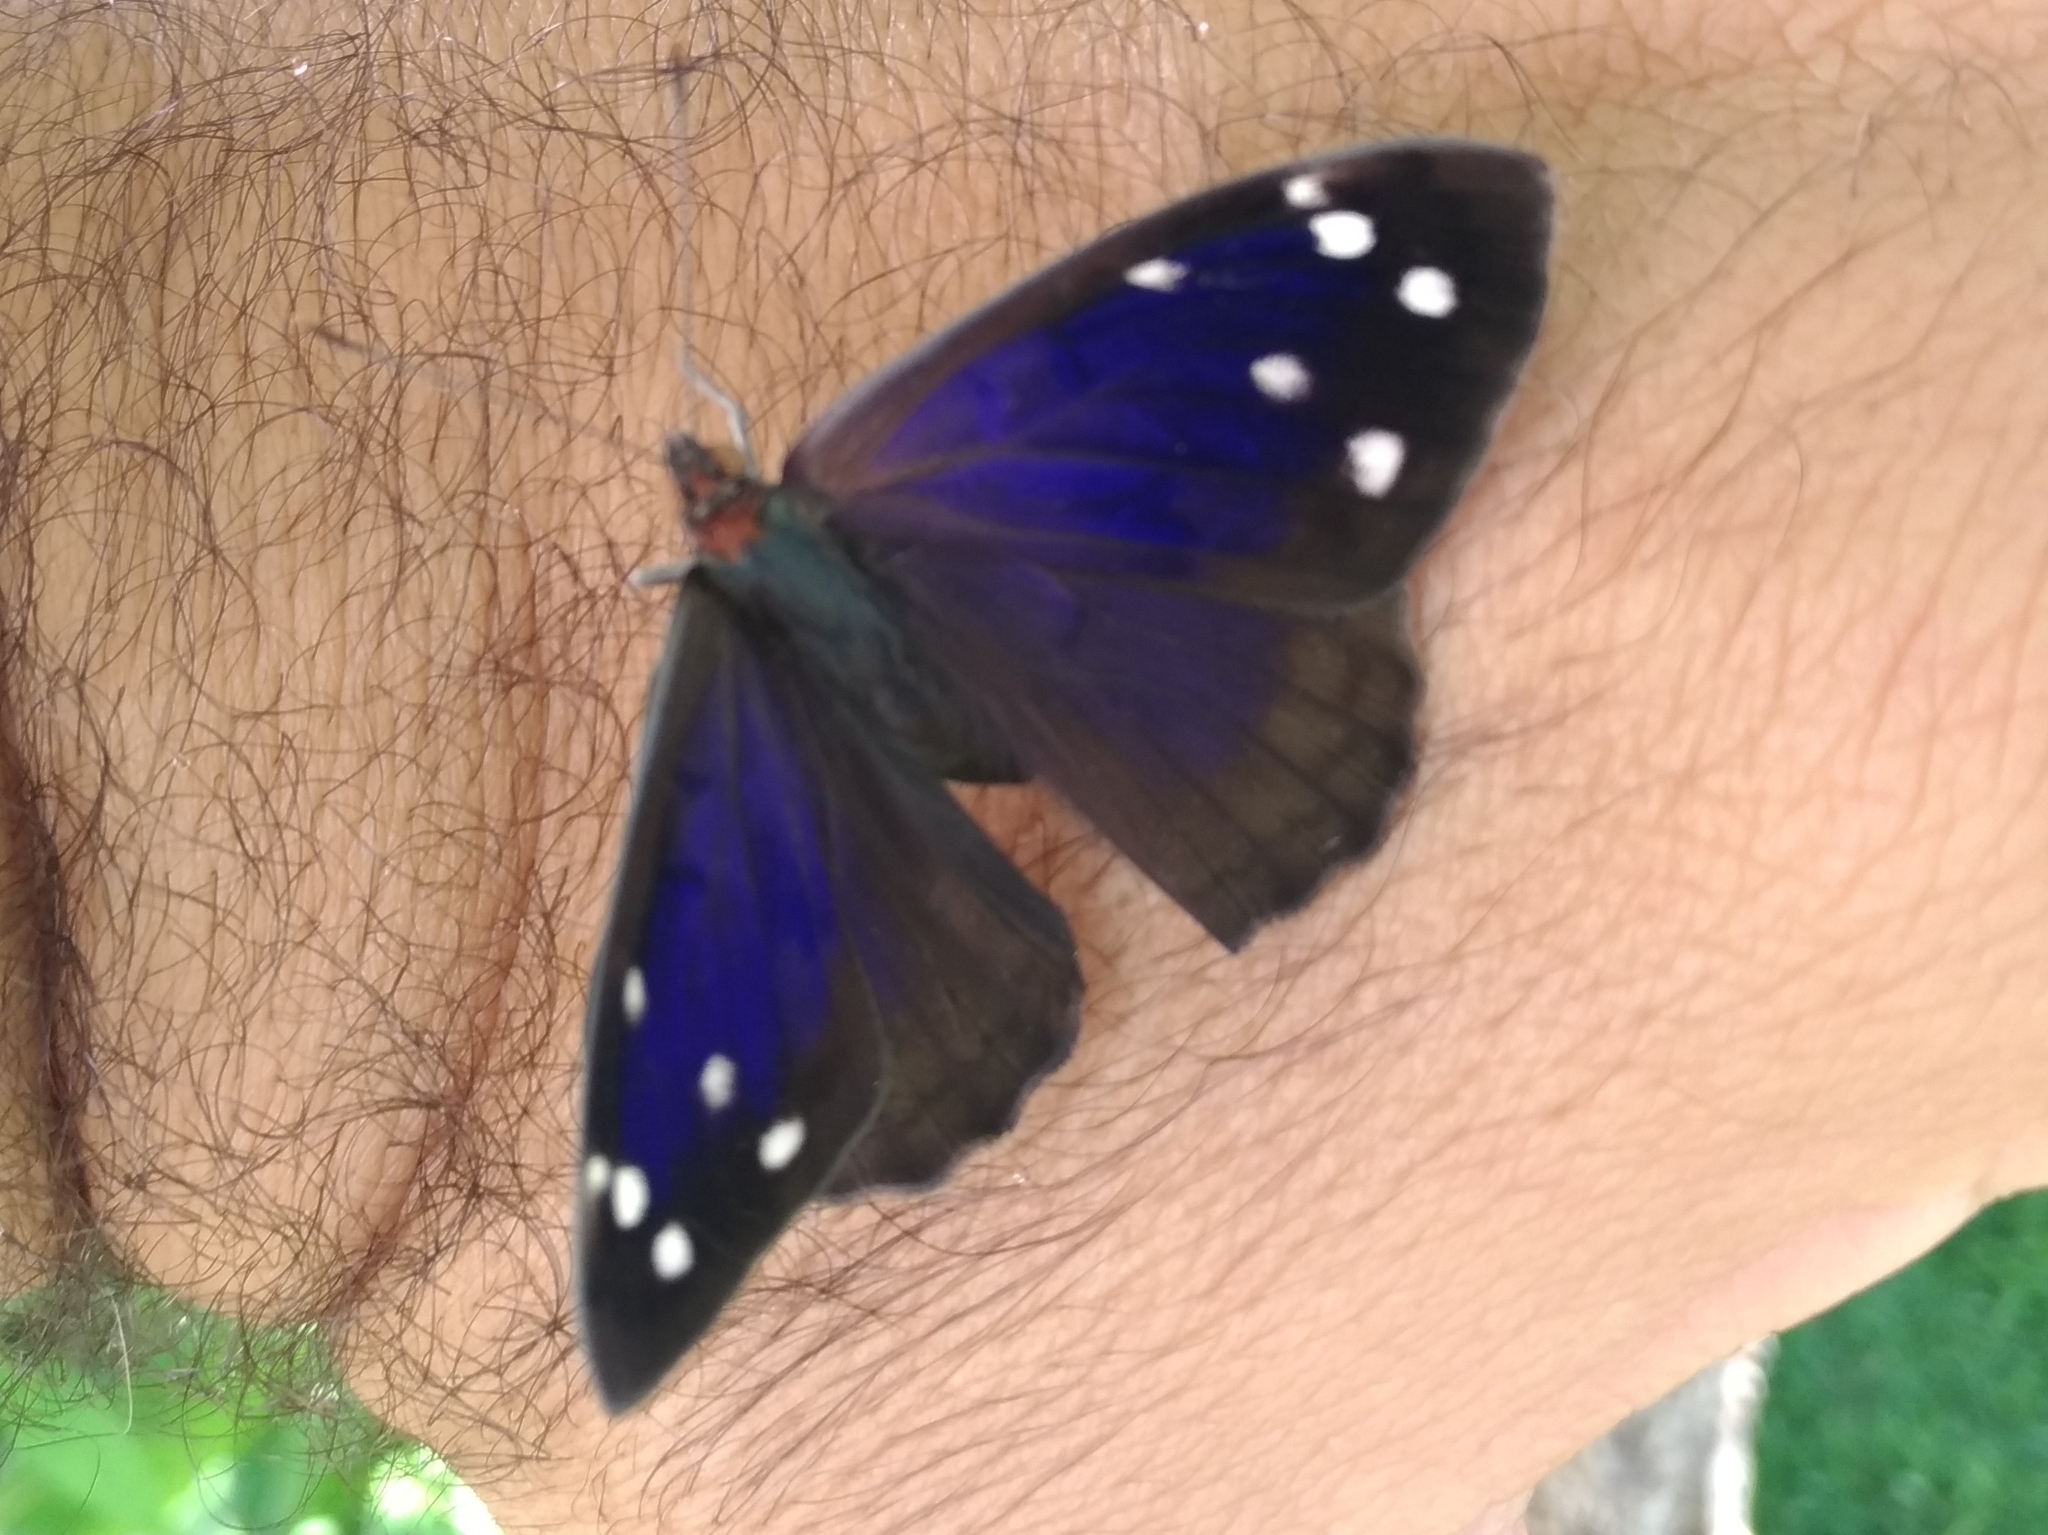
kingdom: Animalia
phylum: Arthropoda
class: Insecta
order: Lepidoptera
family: Nymphalidae
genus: Doxocopa
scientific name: Doxocopa agathina
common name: Agathina emperor
